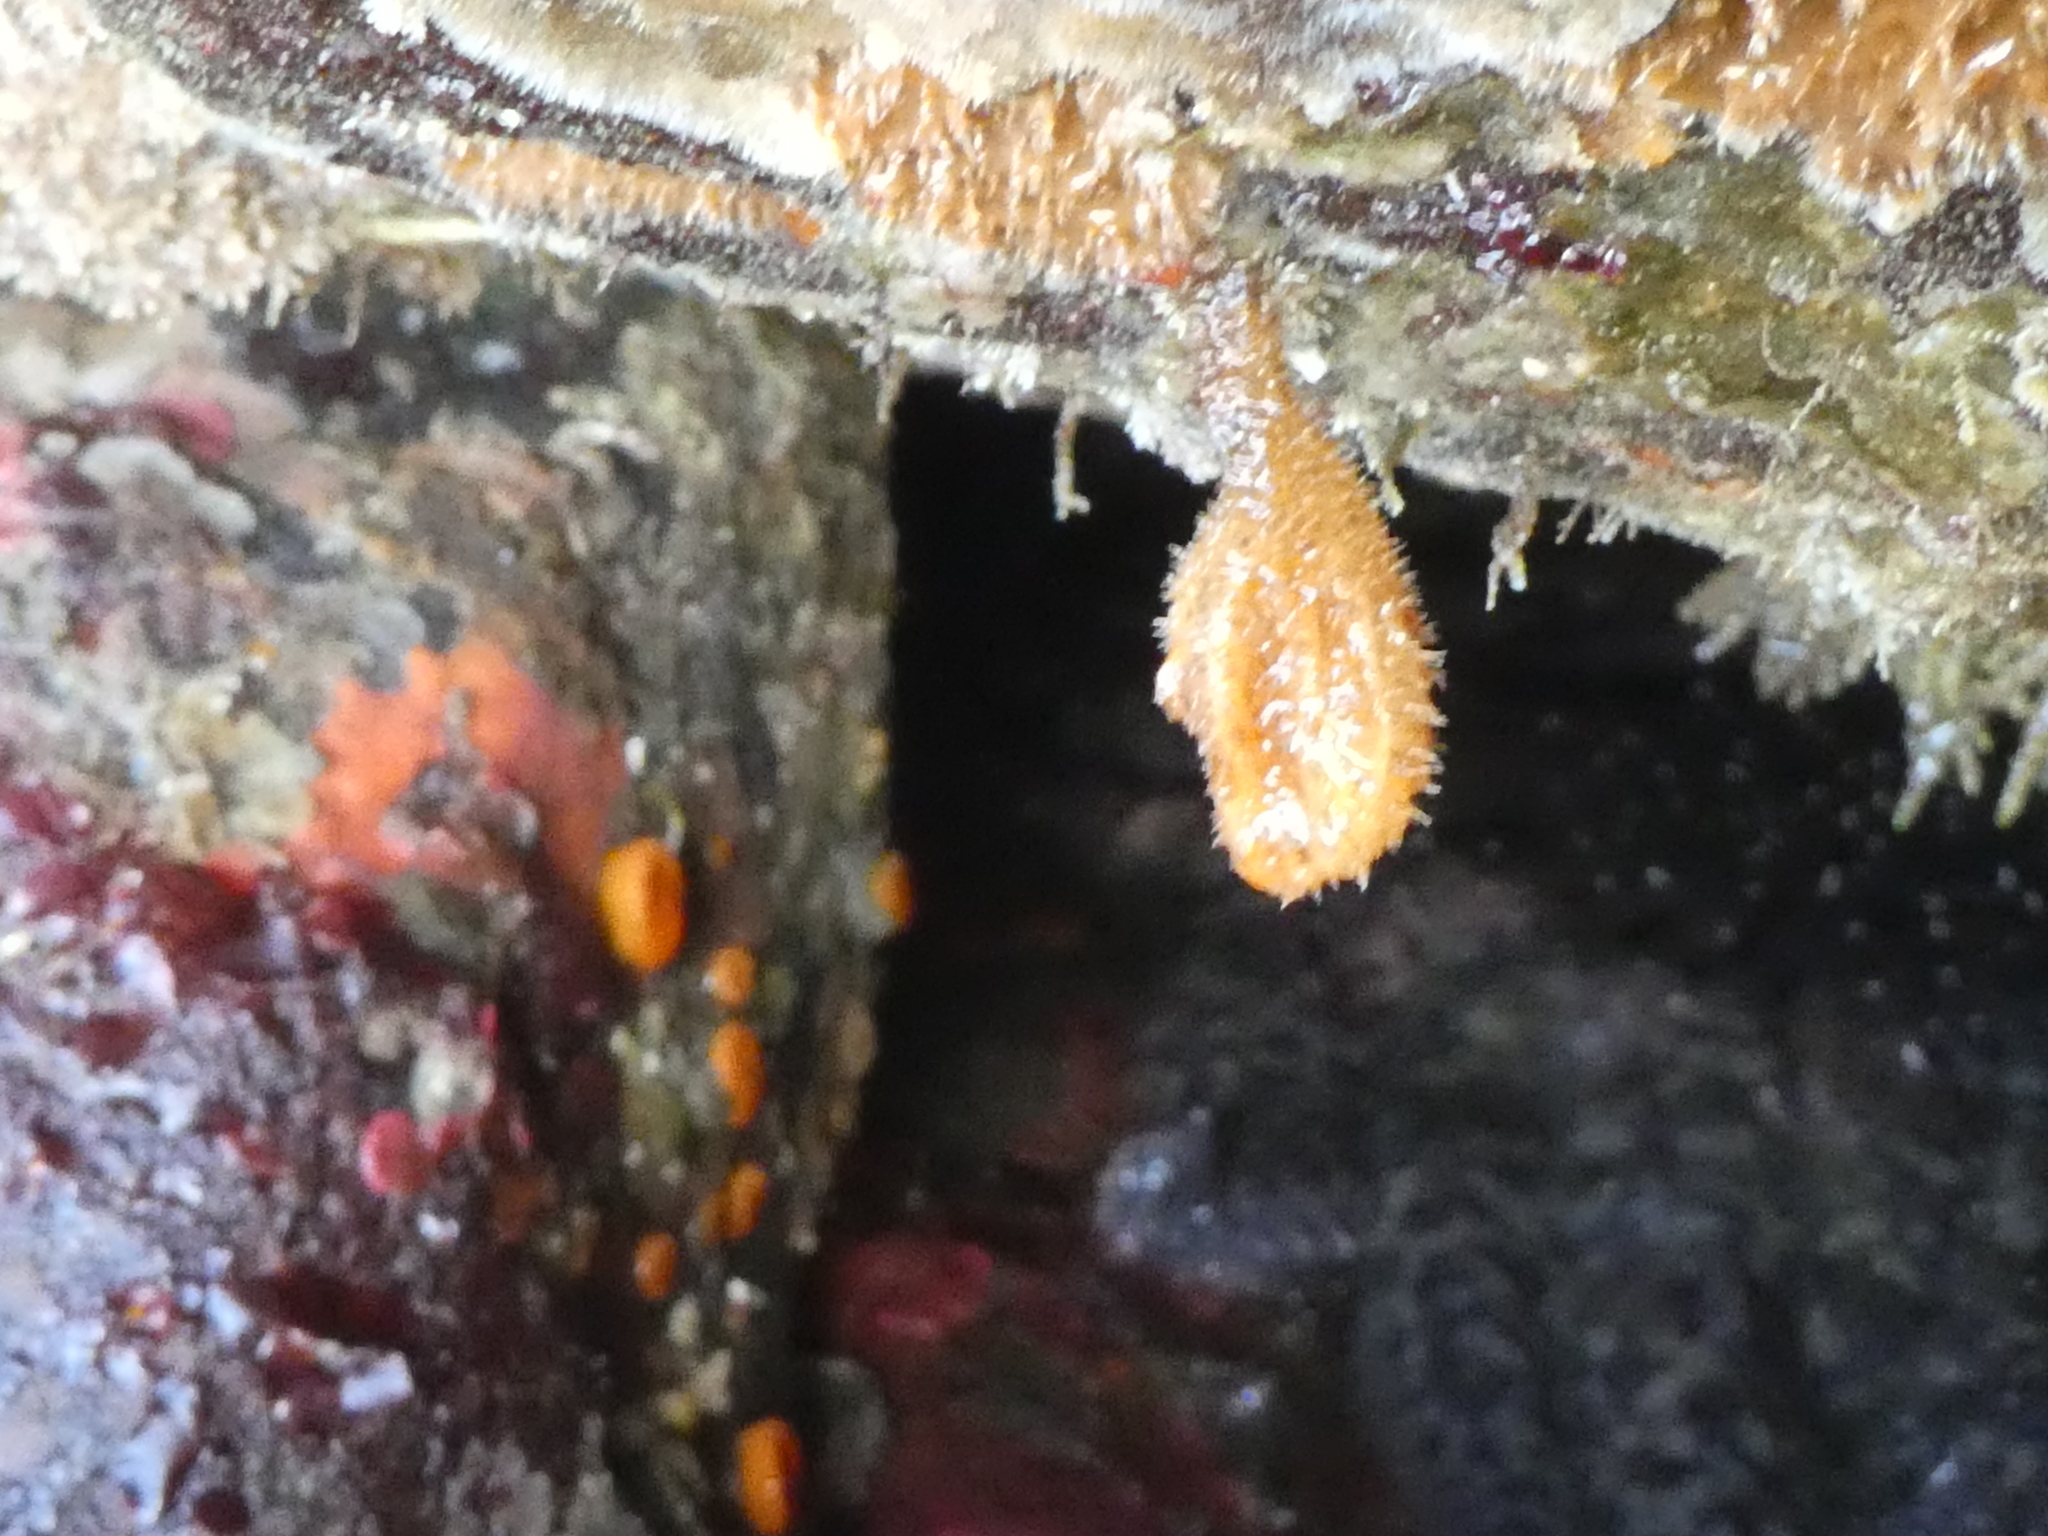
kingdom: Animalia
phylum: Chordata
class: Ascidiacea
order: Stolidobranchia
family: Pyuridae
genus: Boltenia
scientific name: Boltenia villosa
